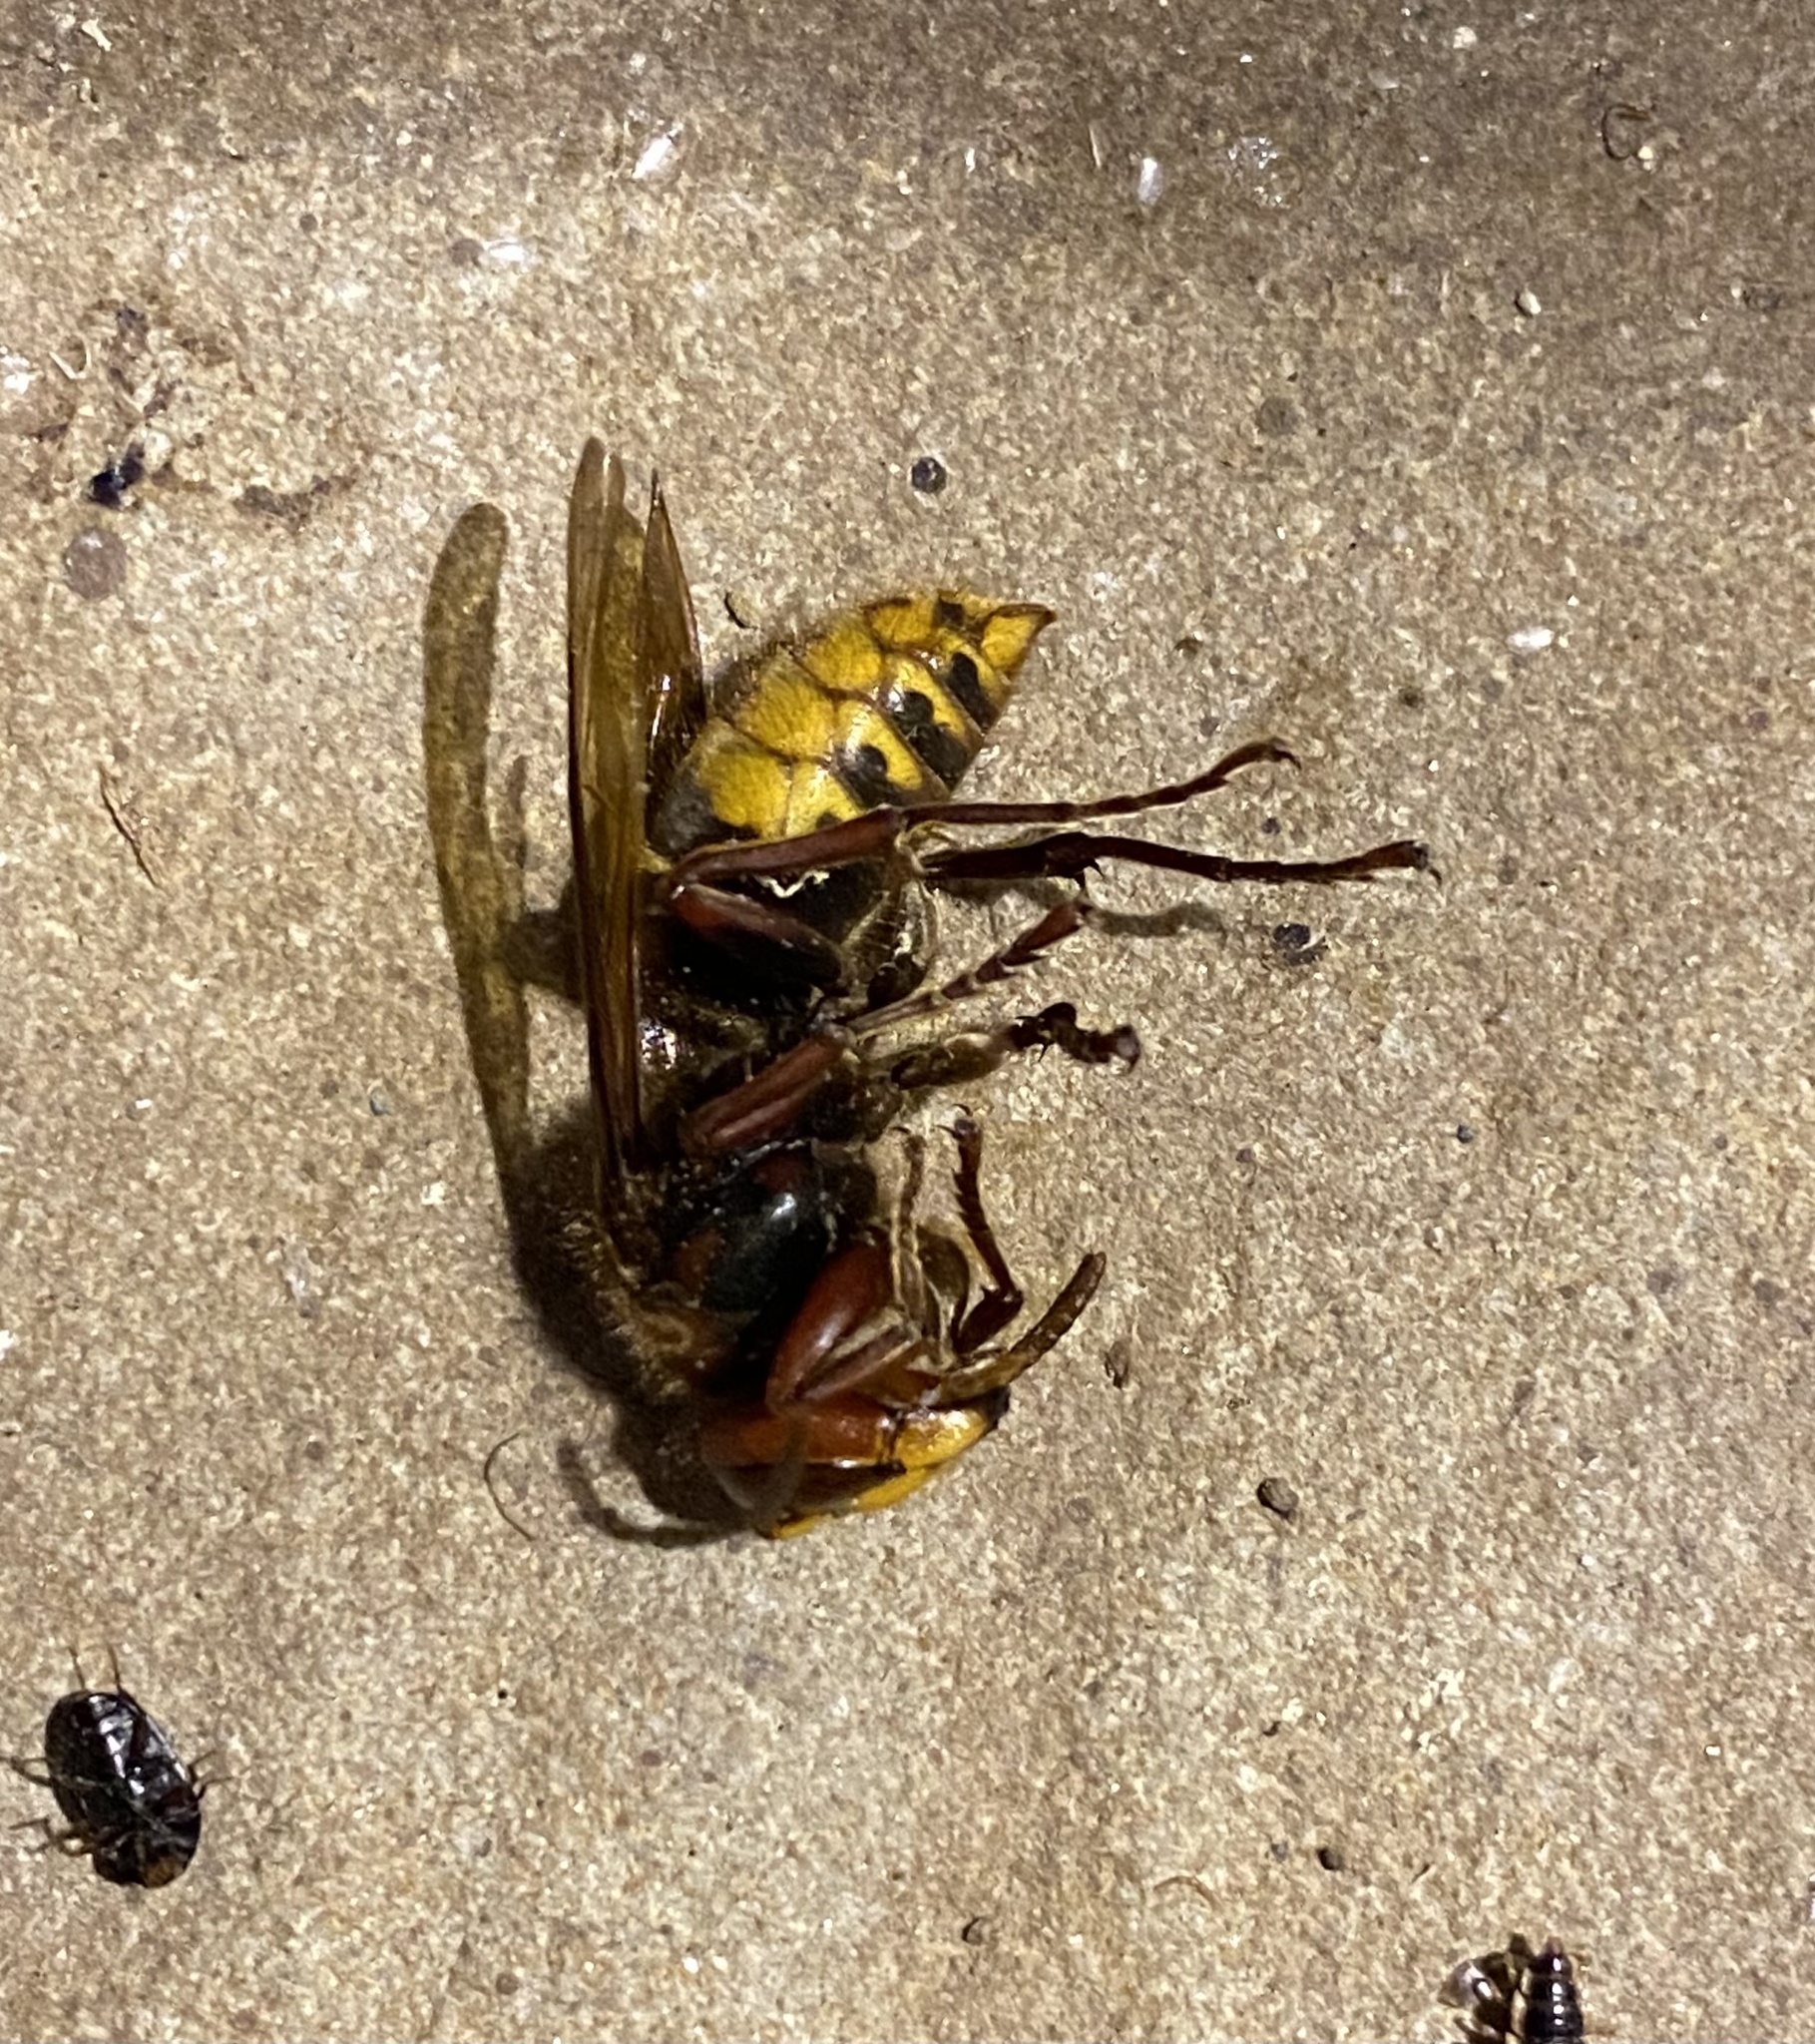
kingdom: Animalia
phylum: Arthropoda
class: Insecta
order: Hymenoptera
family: Vespidae
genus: Vespa
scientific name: Vespa crabro
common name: Hornet
